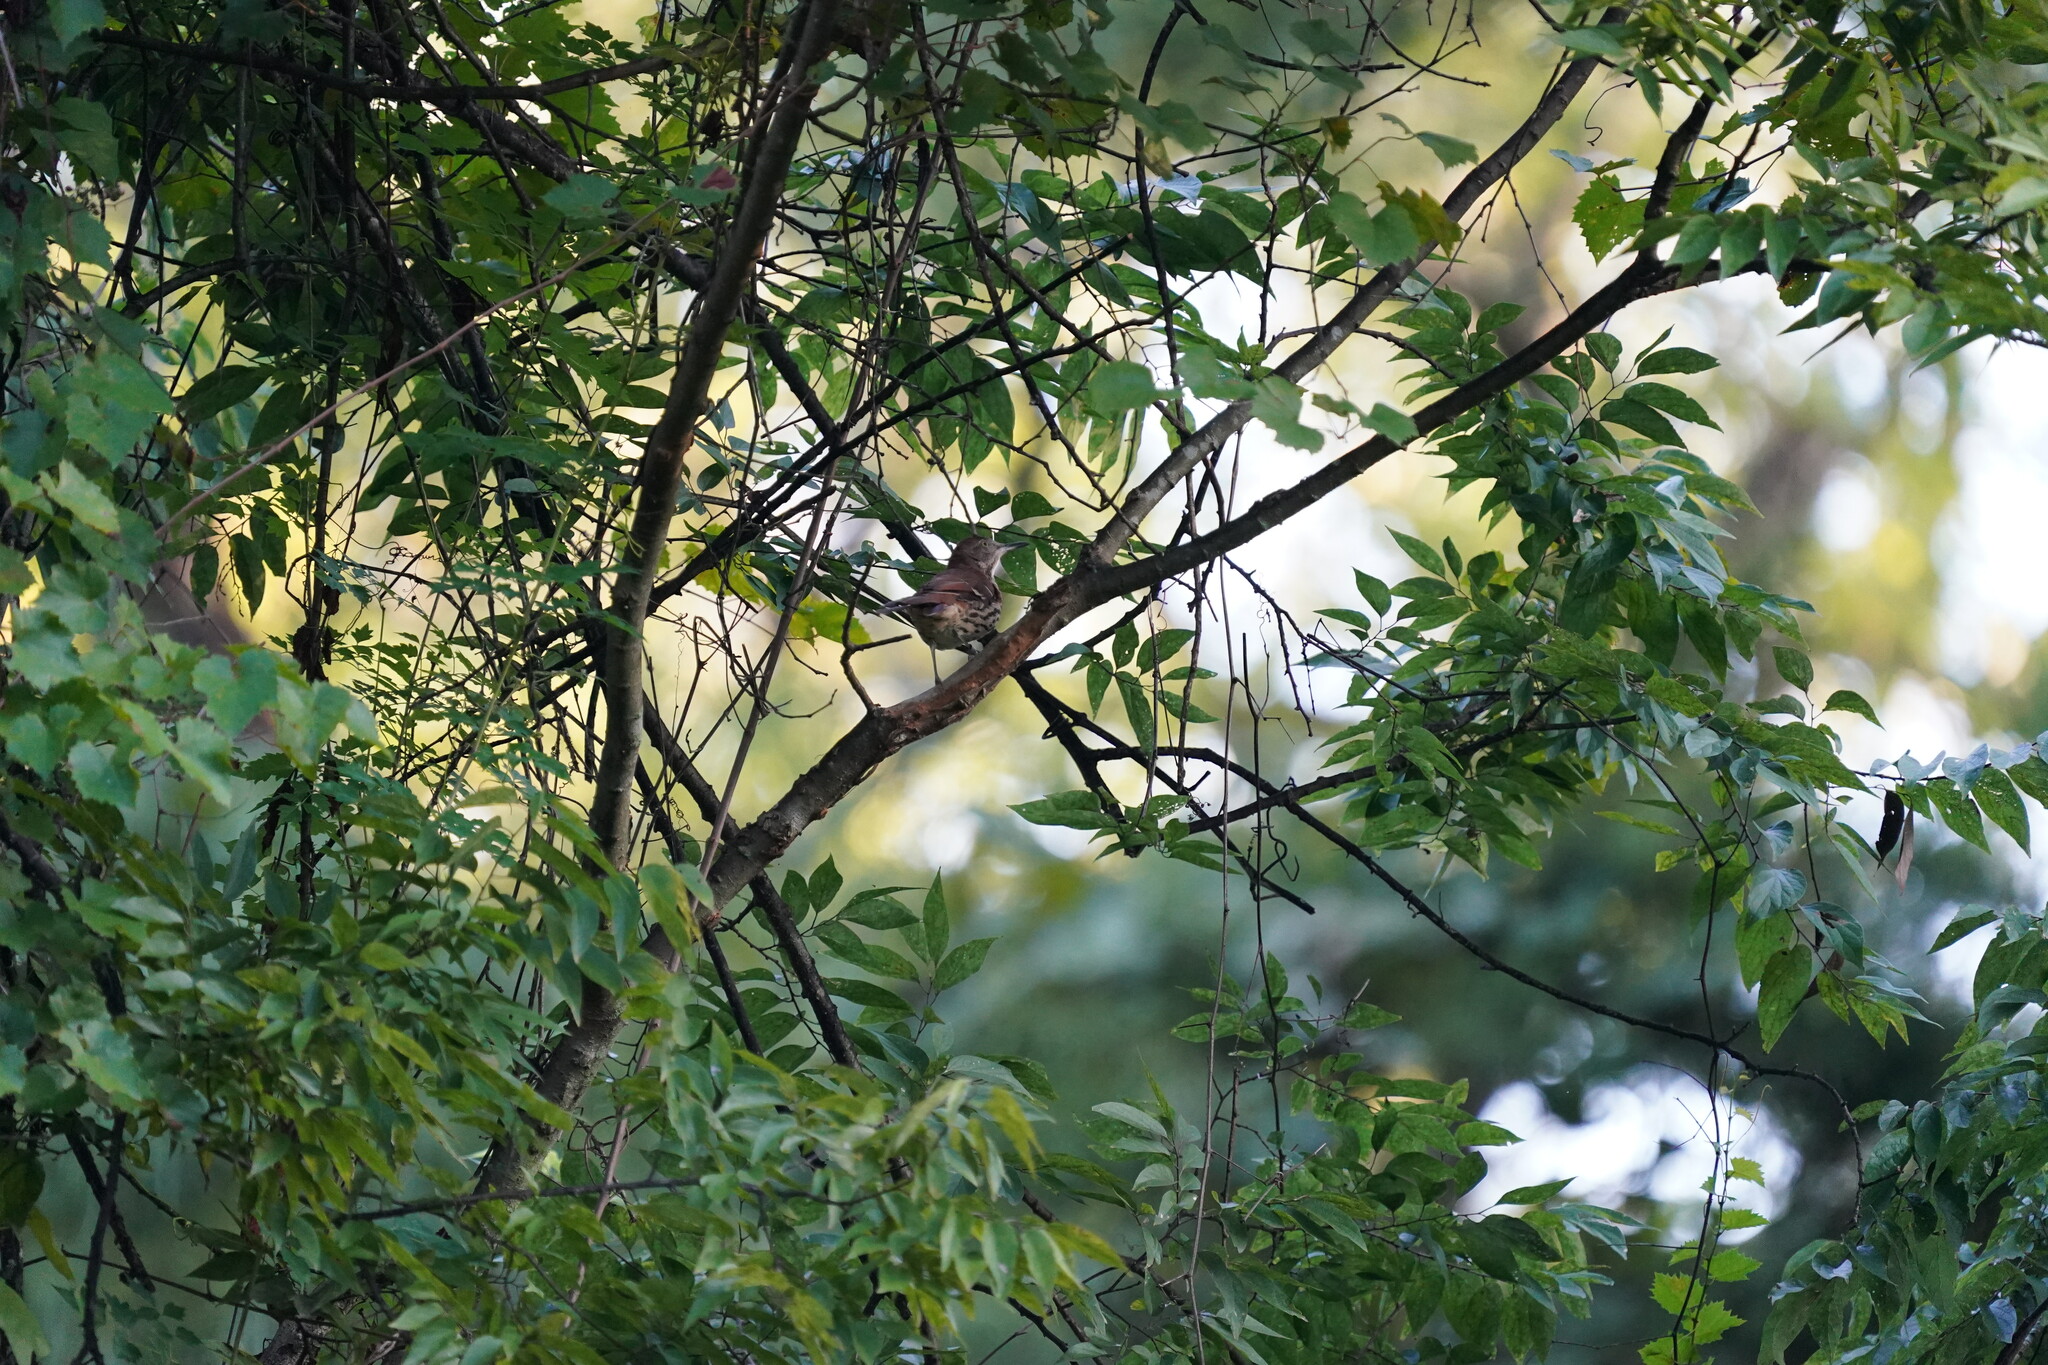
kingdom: Animalia
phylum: Chordata
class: Aves
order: Passeriformes
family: Mimidae
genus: Toxostoma
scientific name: Toxostoma rufum
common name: Brown thrasher
